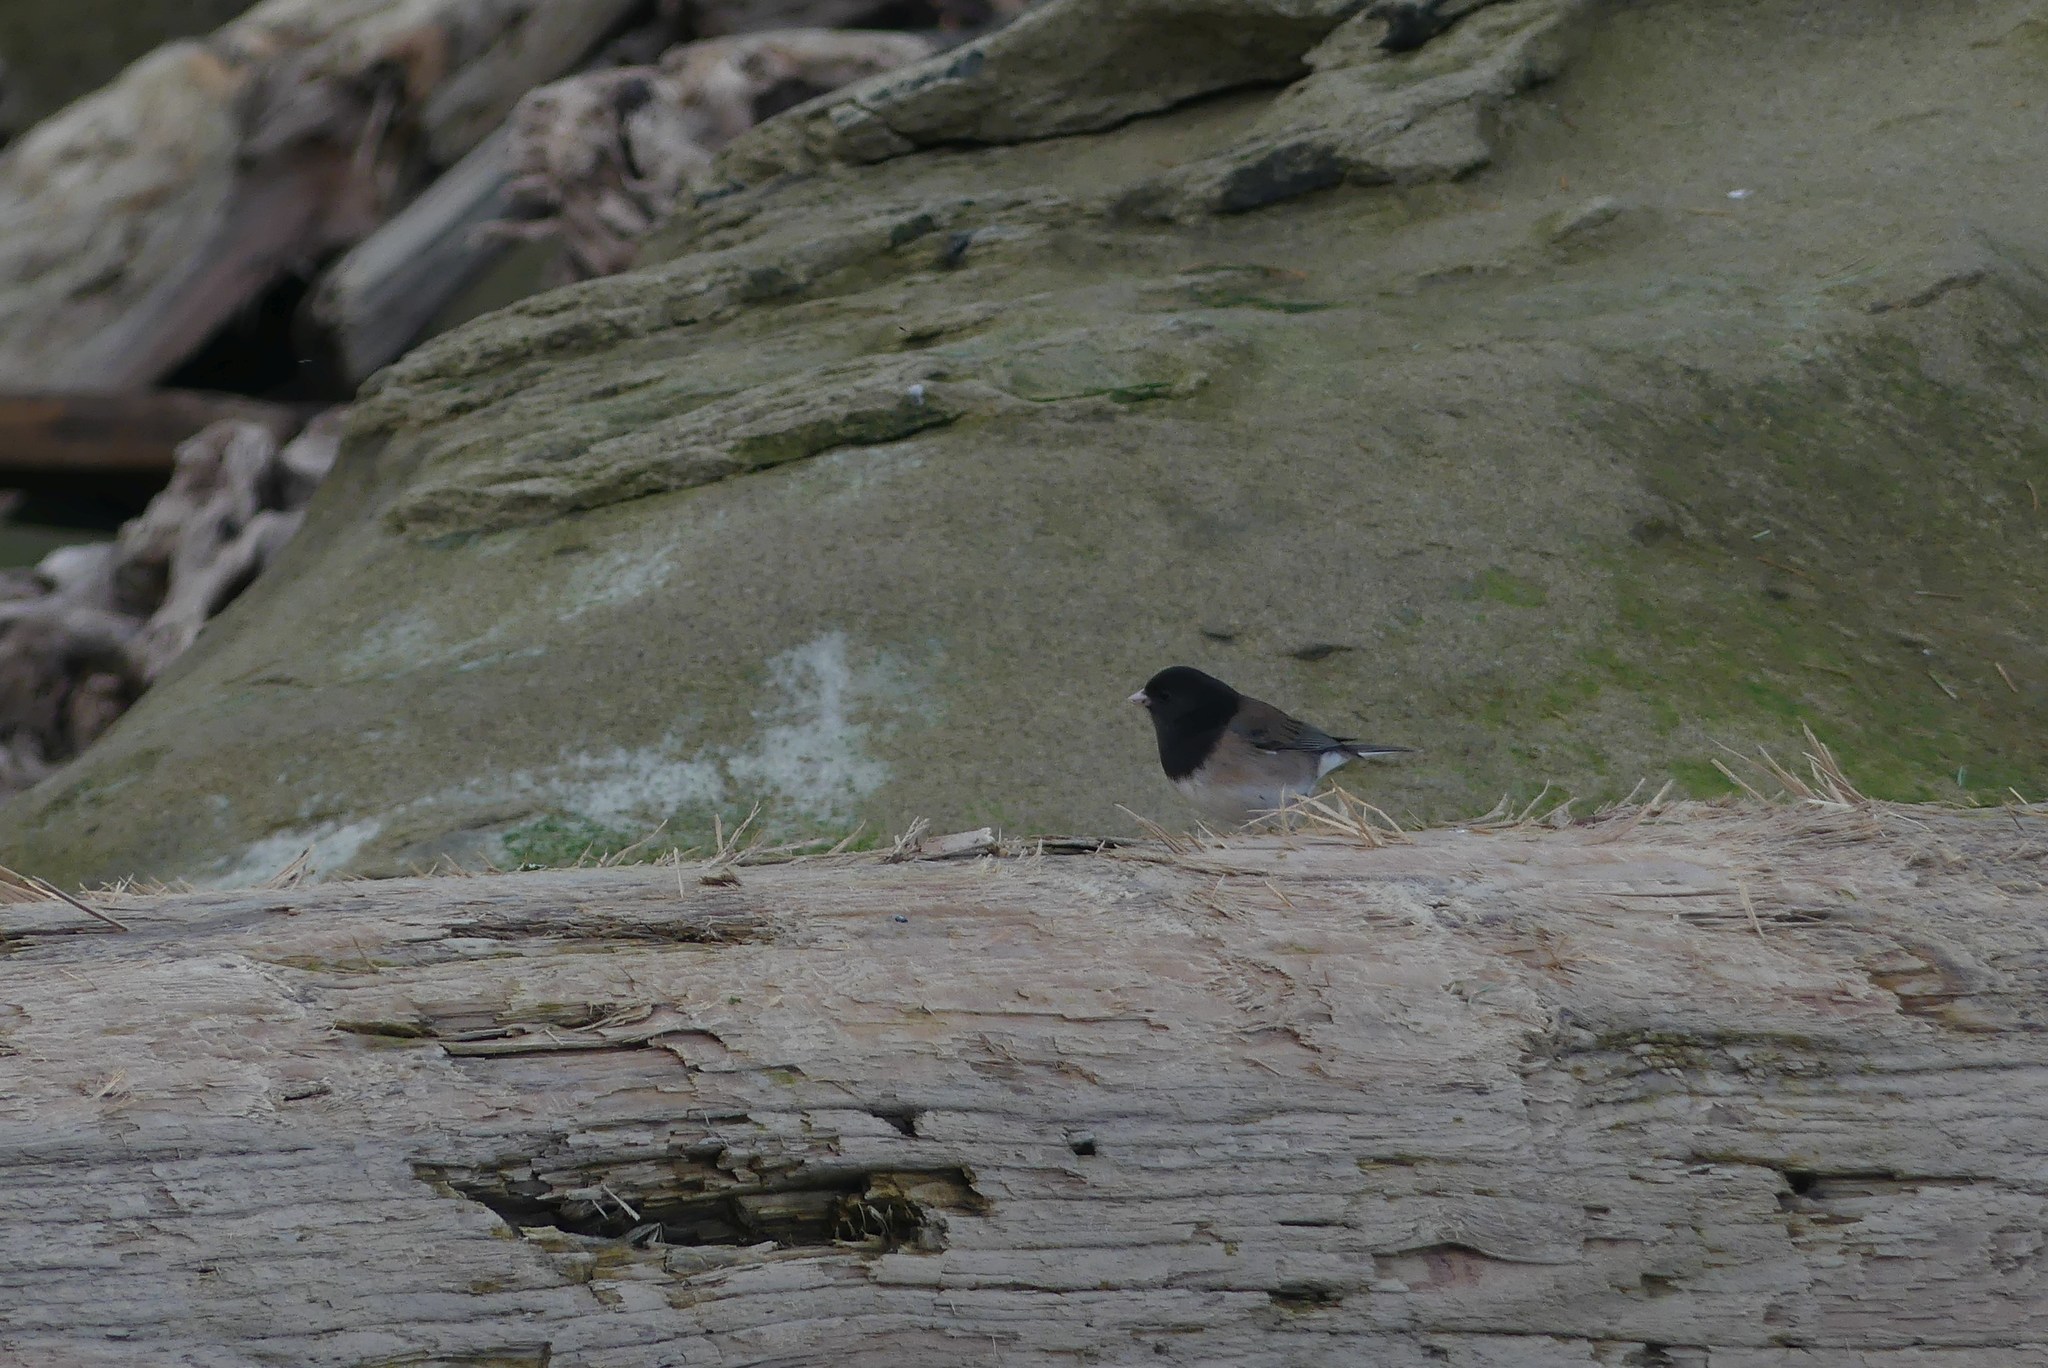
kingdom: Animalia
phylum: Chordata
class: Aves
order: Passeriformes
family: Passerellidae
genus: Junco
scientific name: Junco hyemalis
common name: Dark-eyed junco
